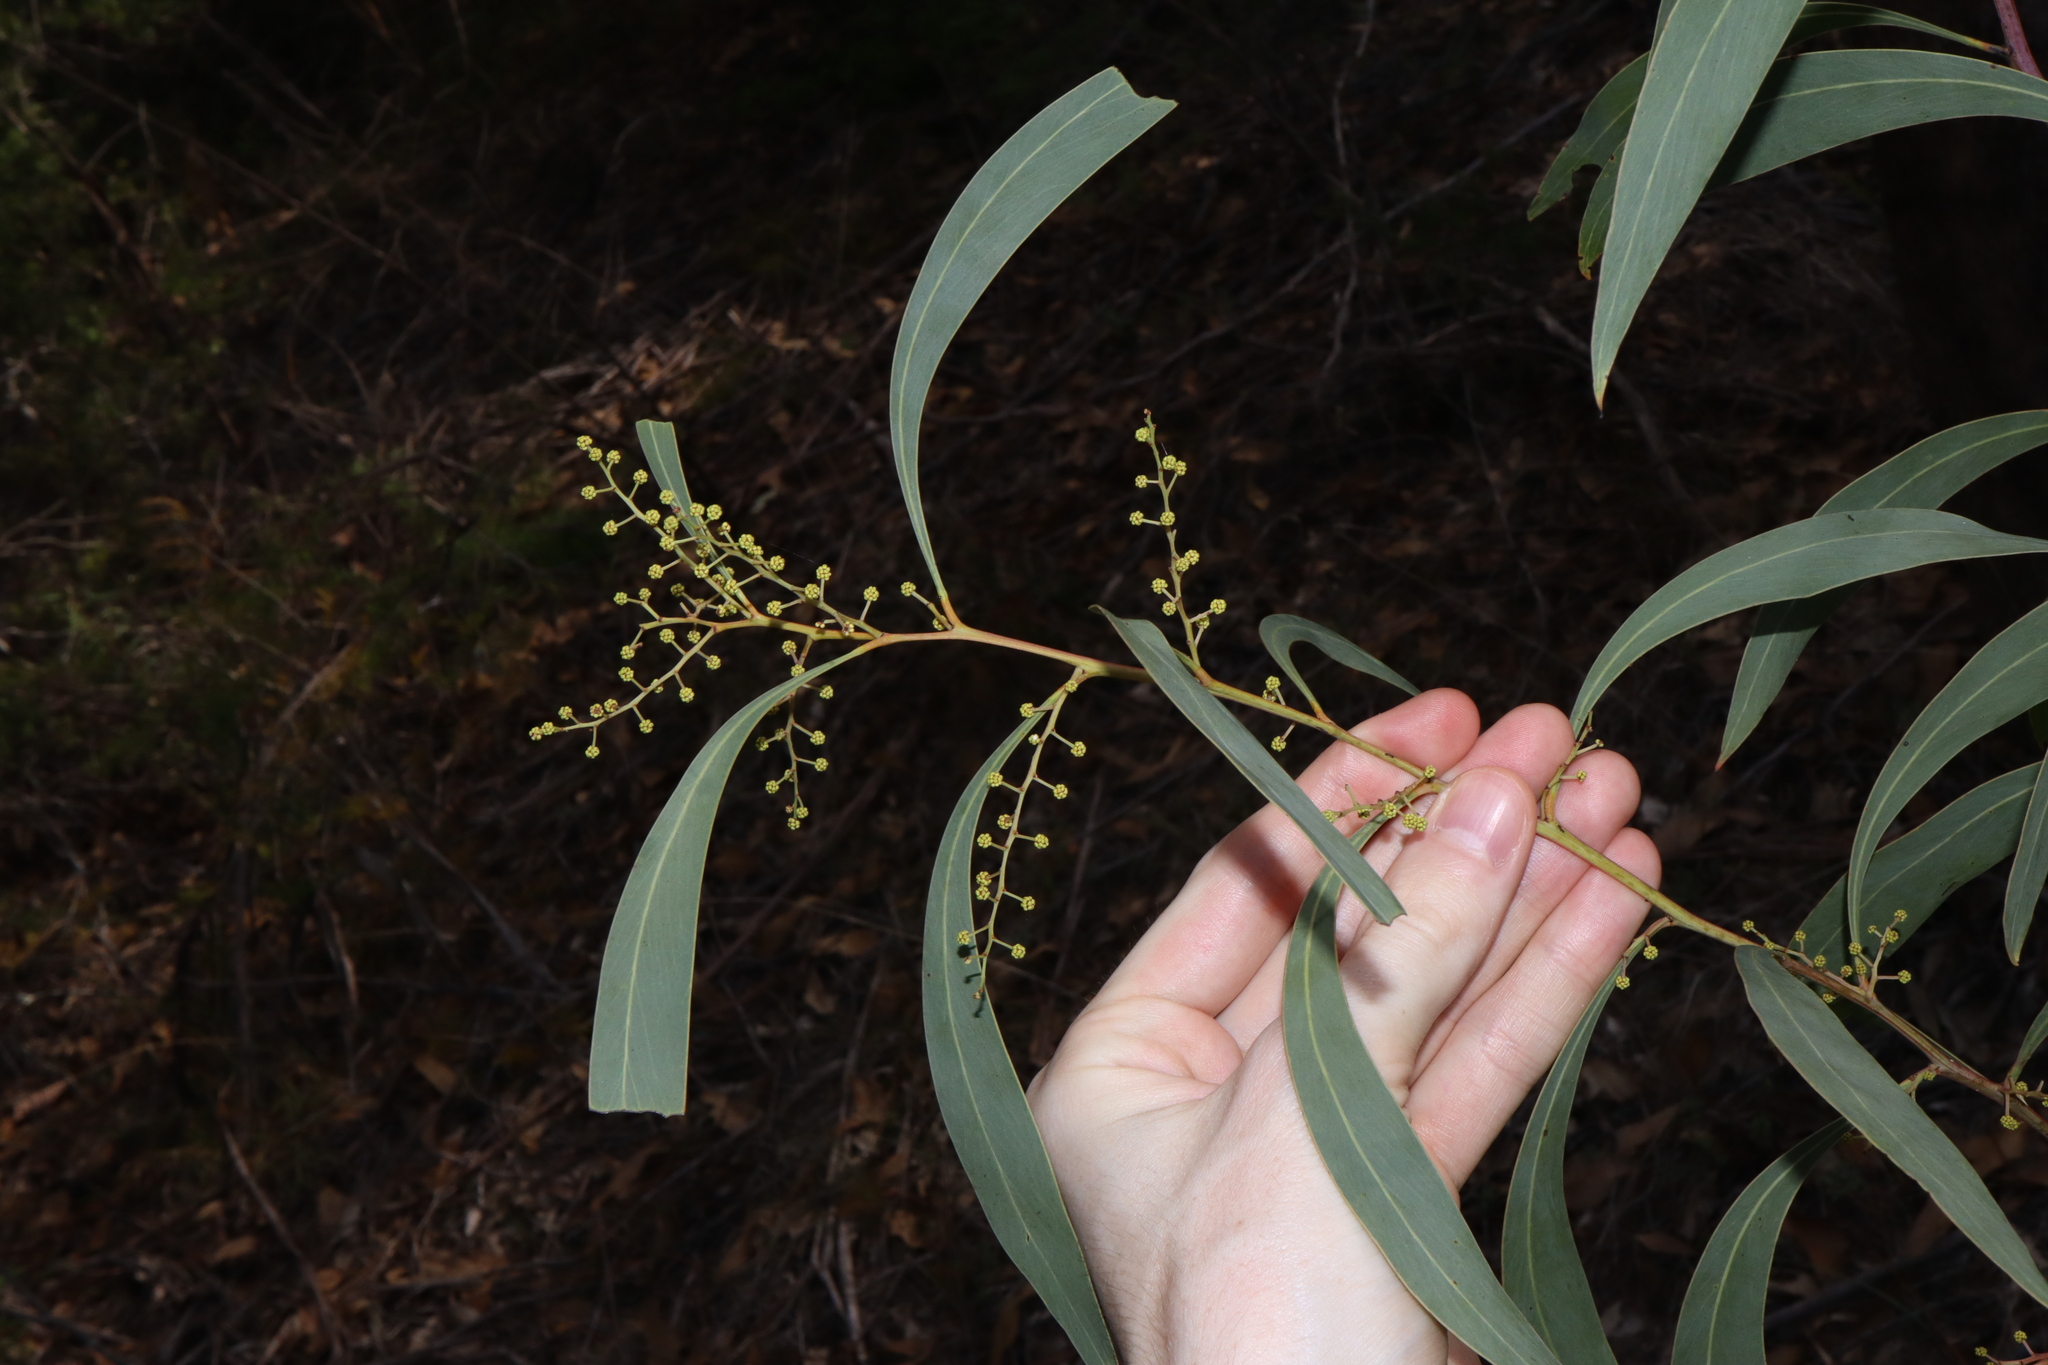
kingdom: Plantae
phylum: Tracheophyta
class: Magnoliopsida
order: Fabales
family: Fabaceae
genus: Acacia
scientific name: Acacia falcata
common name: Burra acacia
